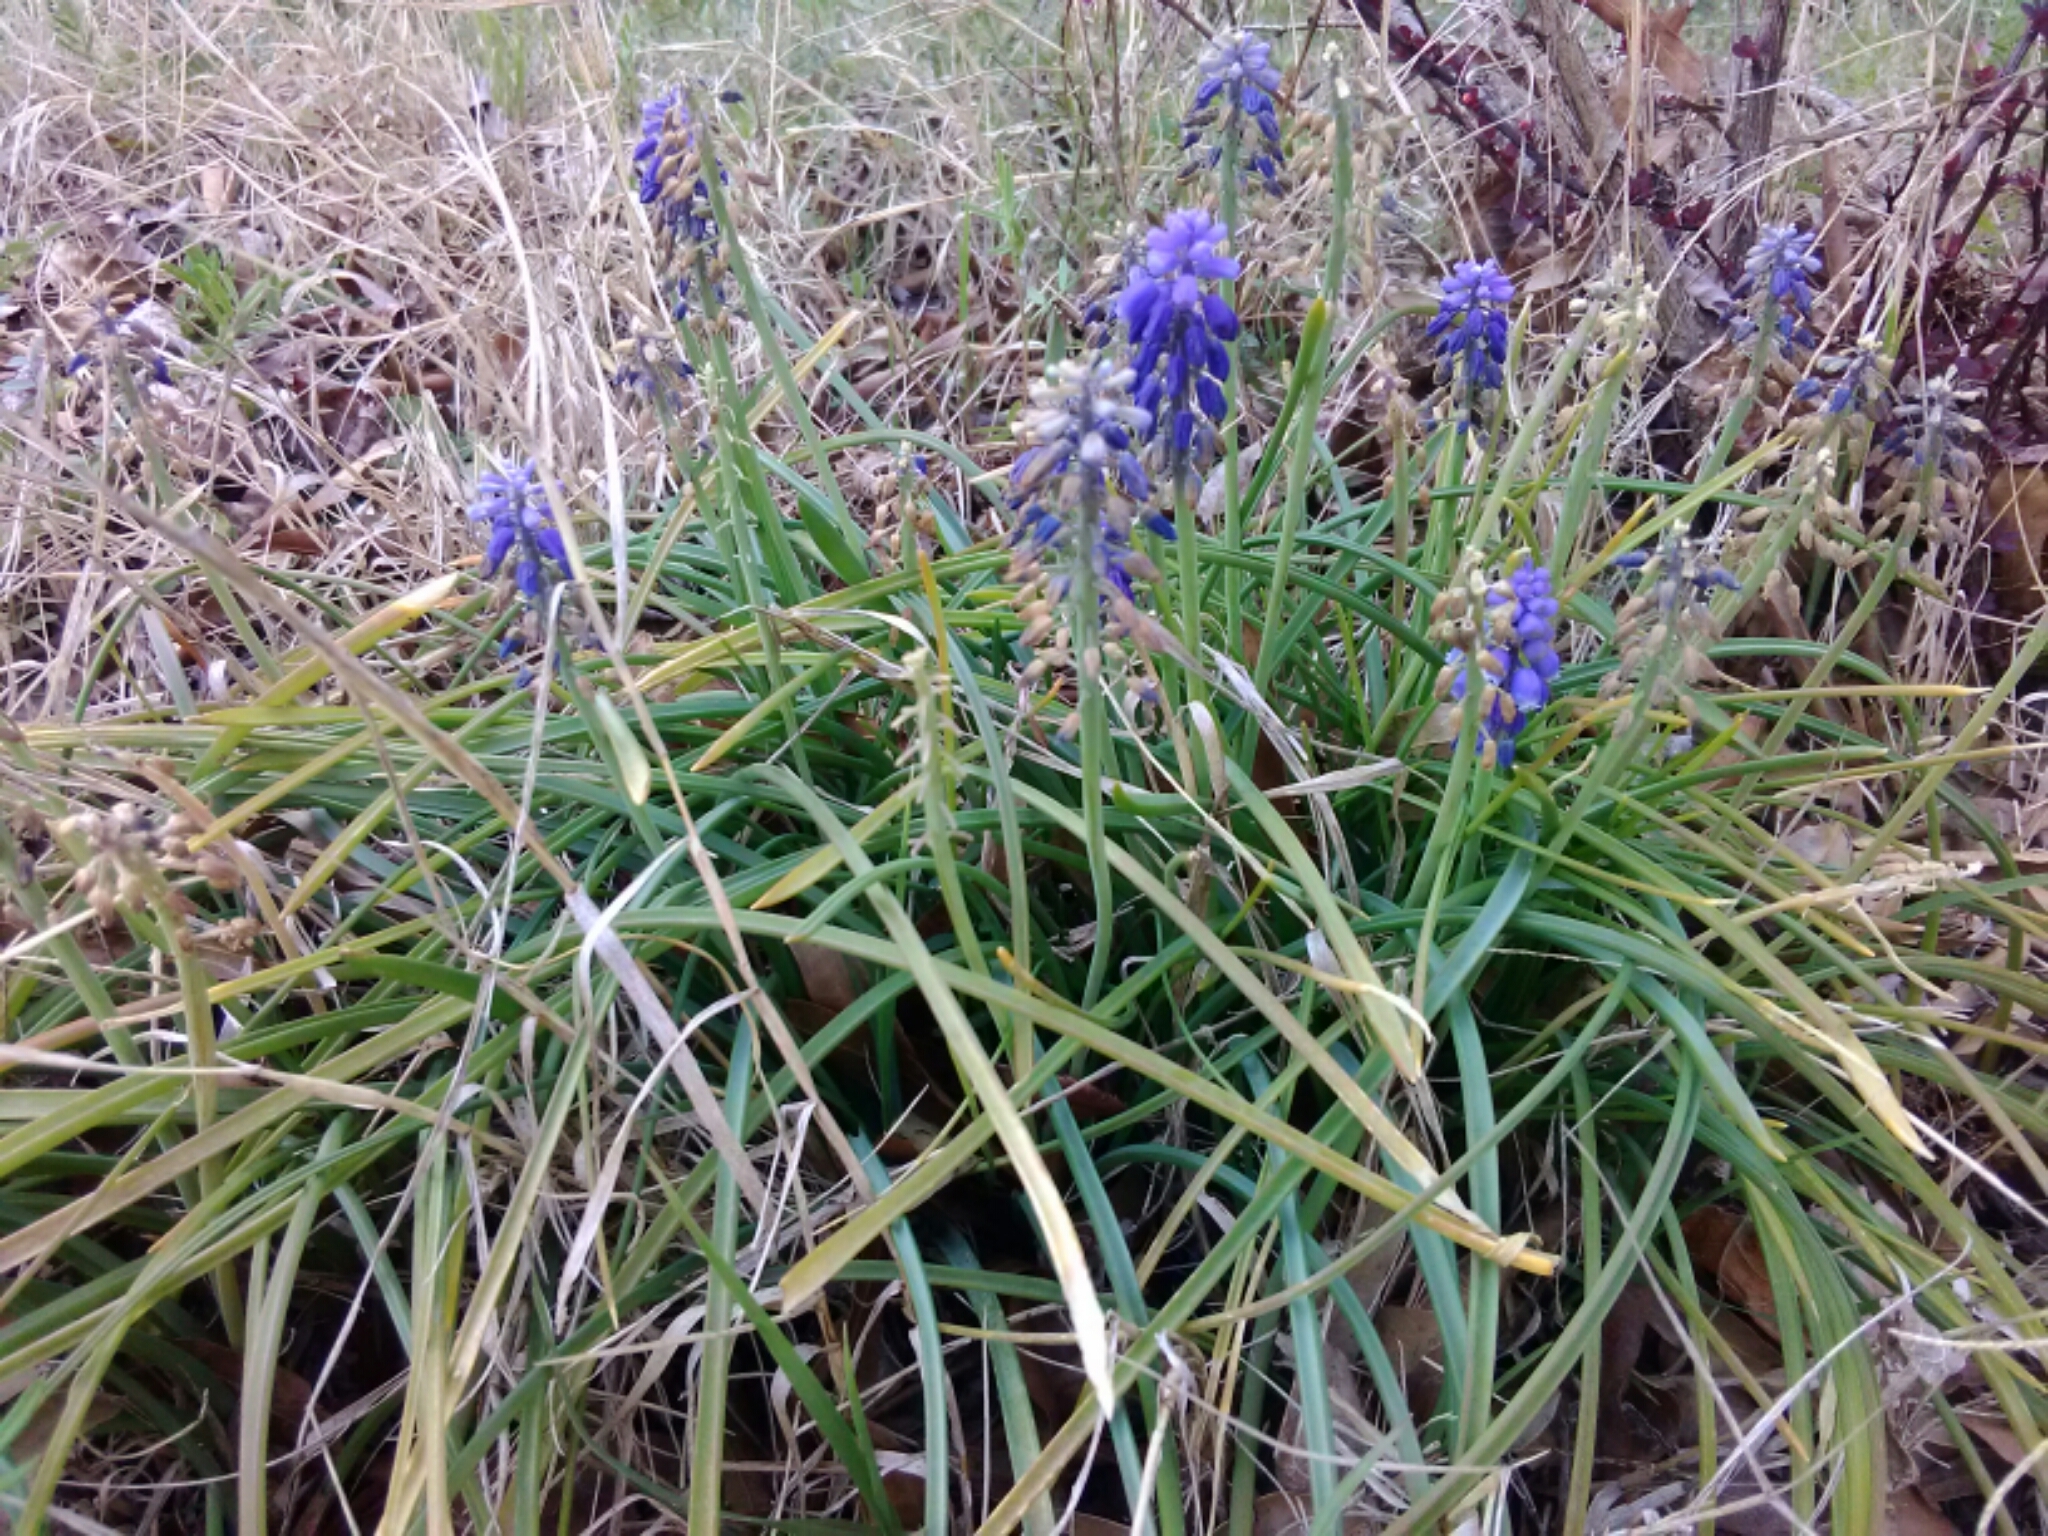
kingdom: Plantae
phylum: Tracheophyta
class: Liliopsida
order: Asparagales
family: Asparagaceae
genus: Muscari
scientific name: Muscari neglectum
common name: Grape-hyacinth
